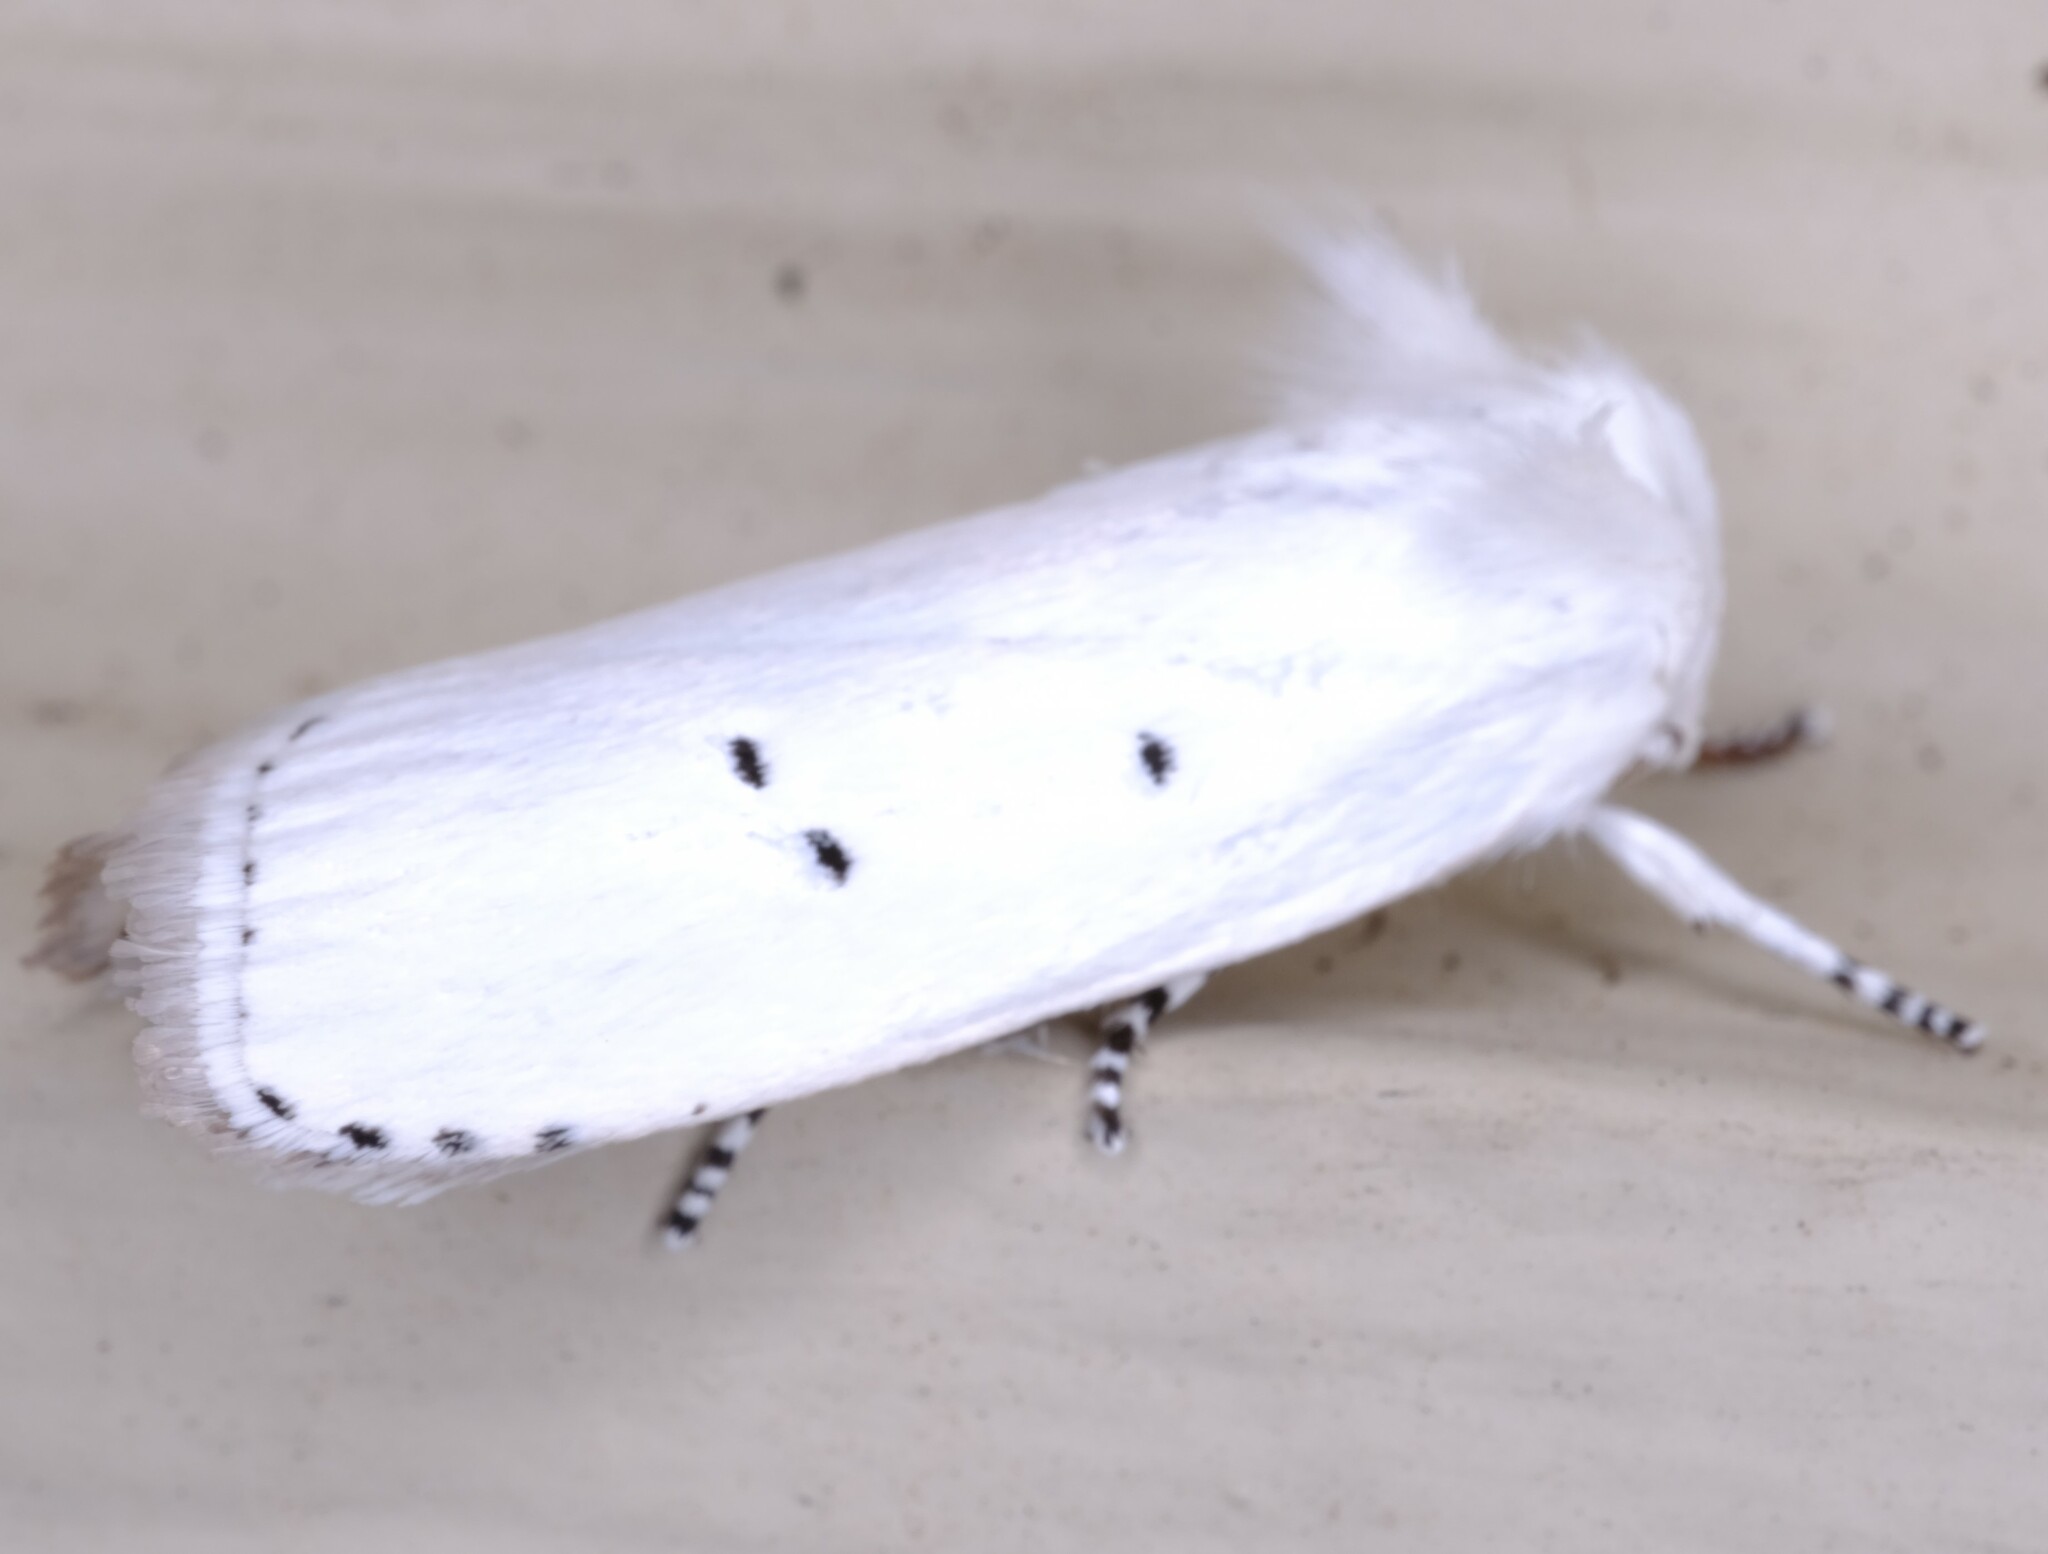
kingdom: Animalia
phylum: Arthropoda
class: Insecta
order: Lepidoptera
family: Xyloryctidae
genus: Cryptophasa
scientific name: Cryptophasa pultenae
